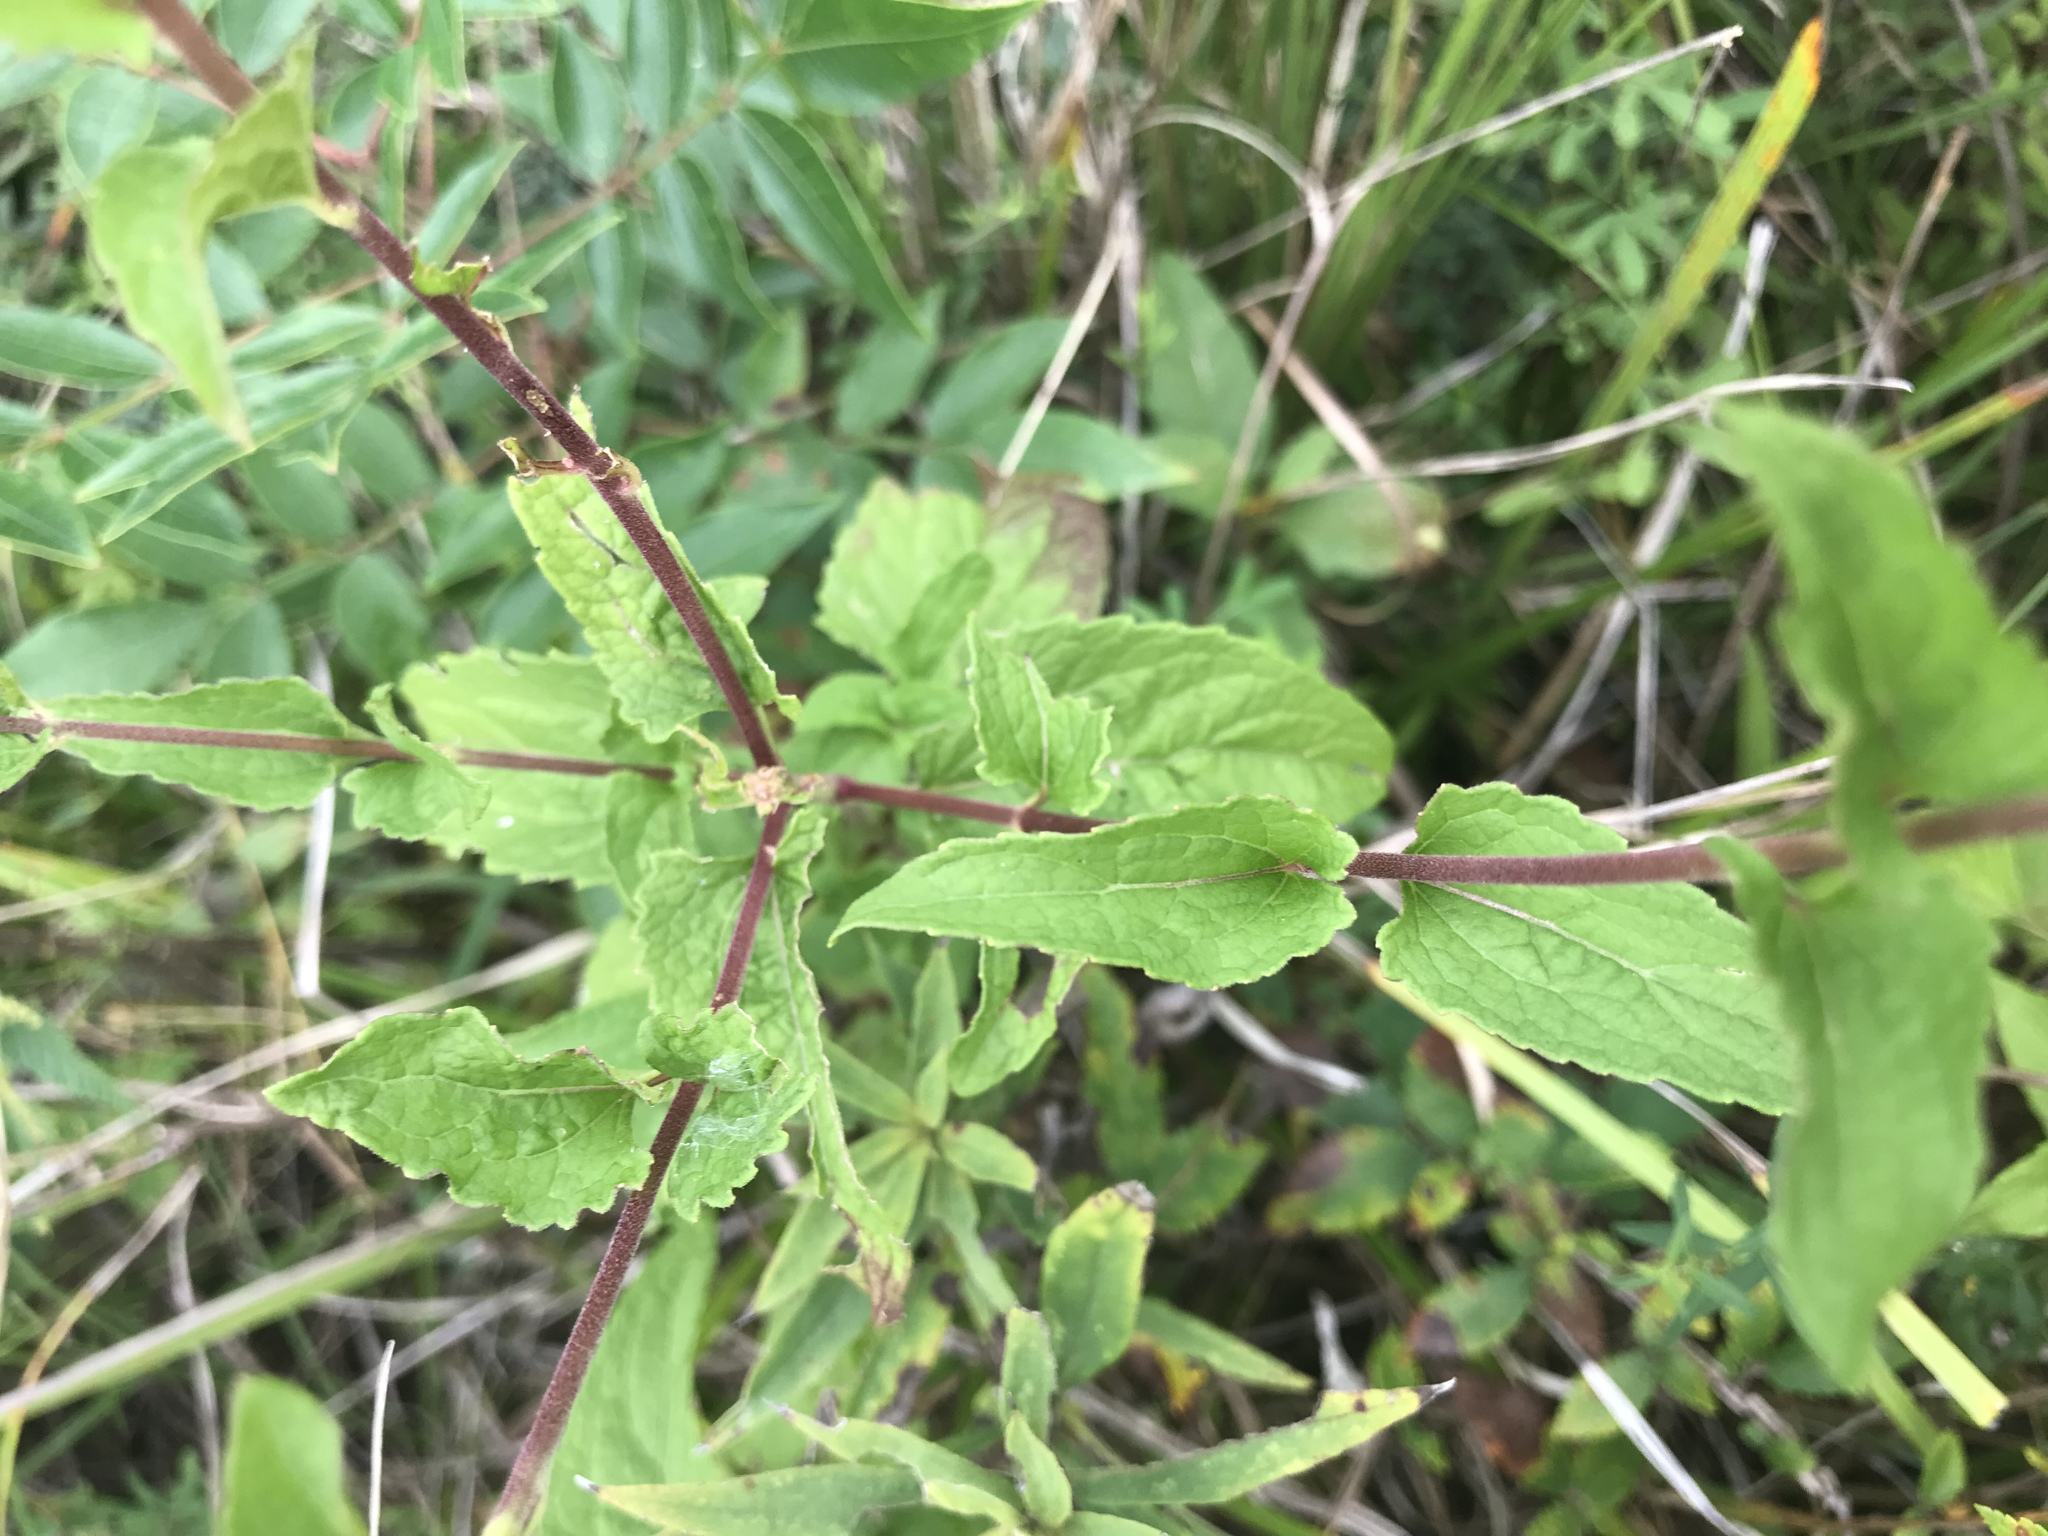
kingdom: Plantae
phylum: Tracheophyta
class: Magnoliopsida
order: Asterales
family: Asteraceae
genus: Conoclinium
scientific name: Conoclinium coelestinum
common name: Blue mistflower
